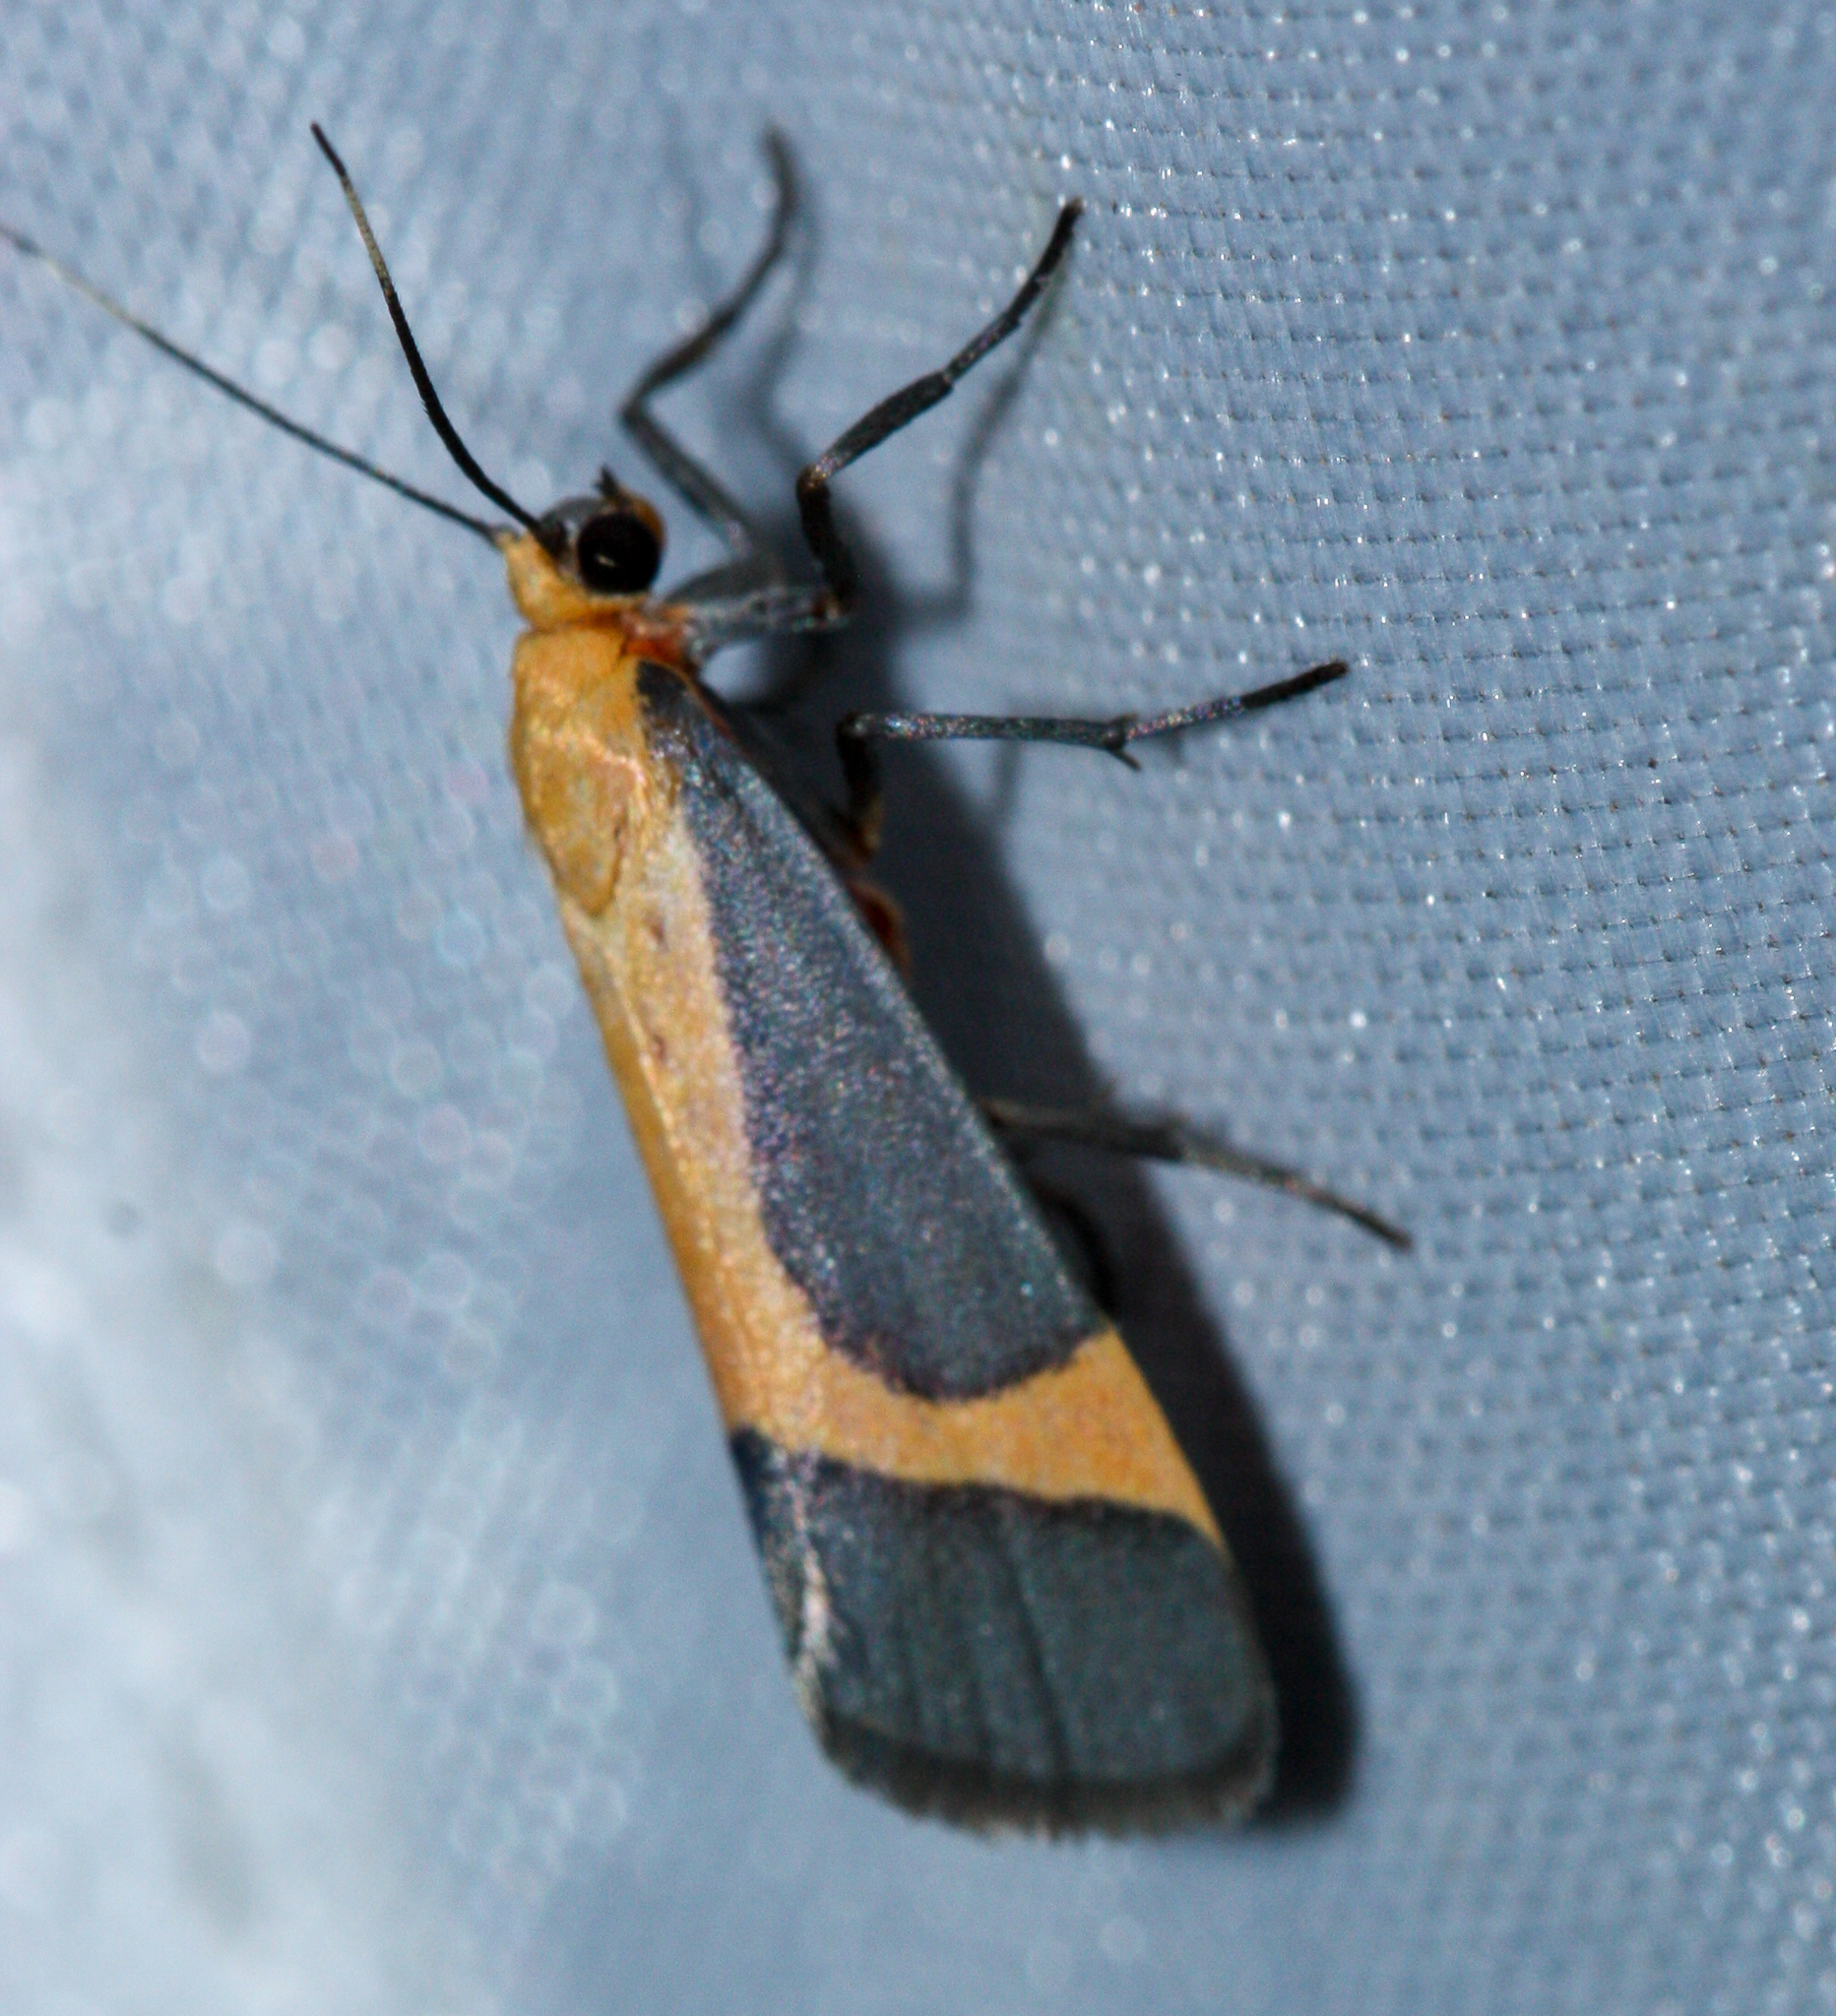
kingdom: Animalia
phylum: Arthropoda
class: Insecta
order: Lepidoptera
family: Erebidae
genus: Cisthene
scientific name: Cisthene angelus
